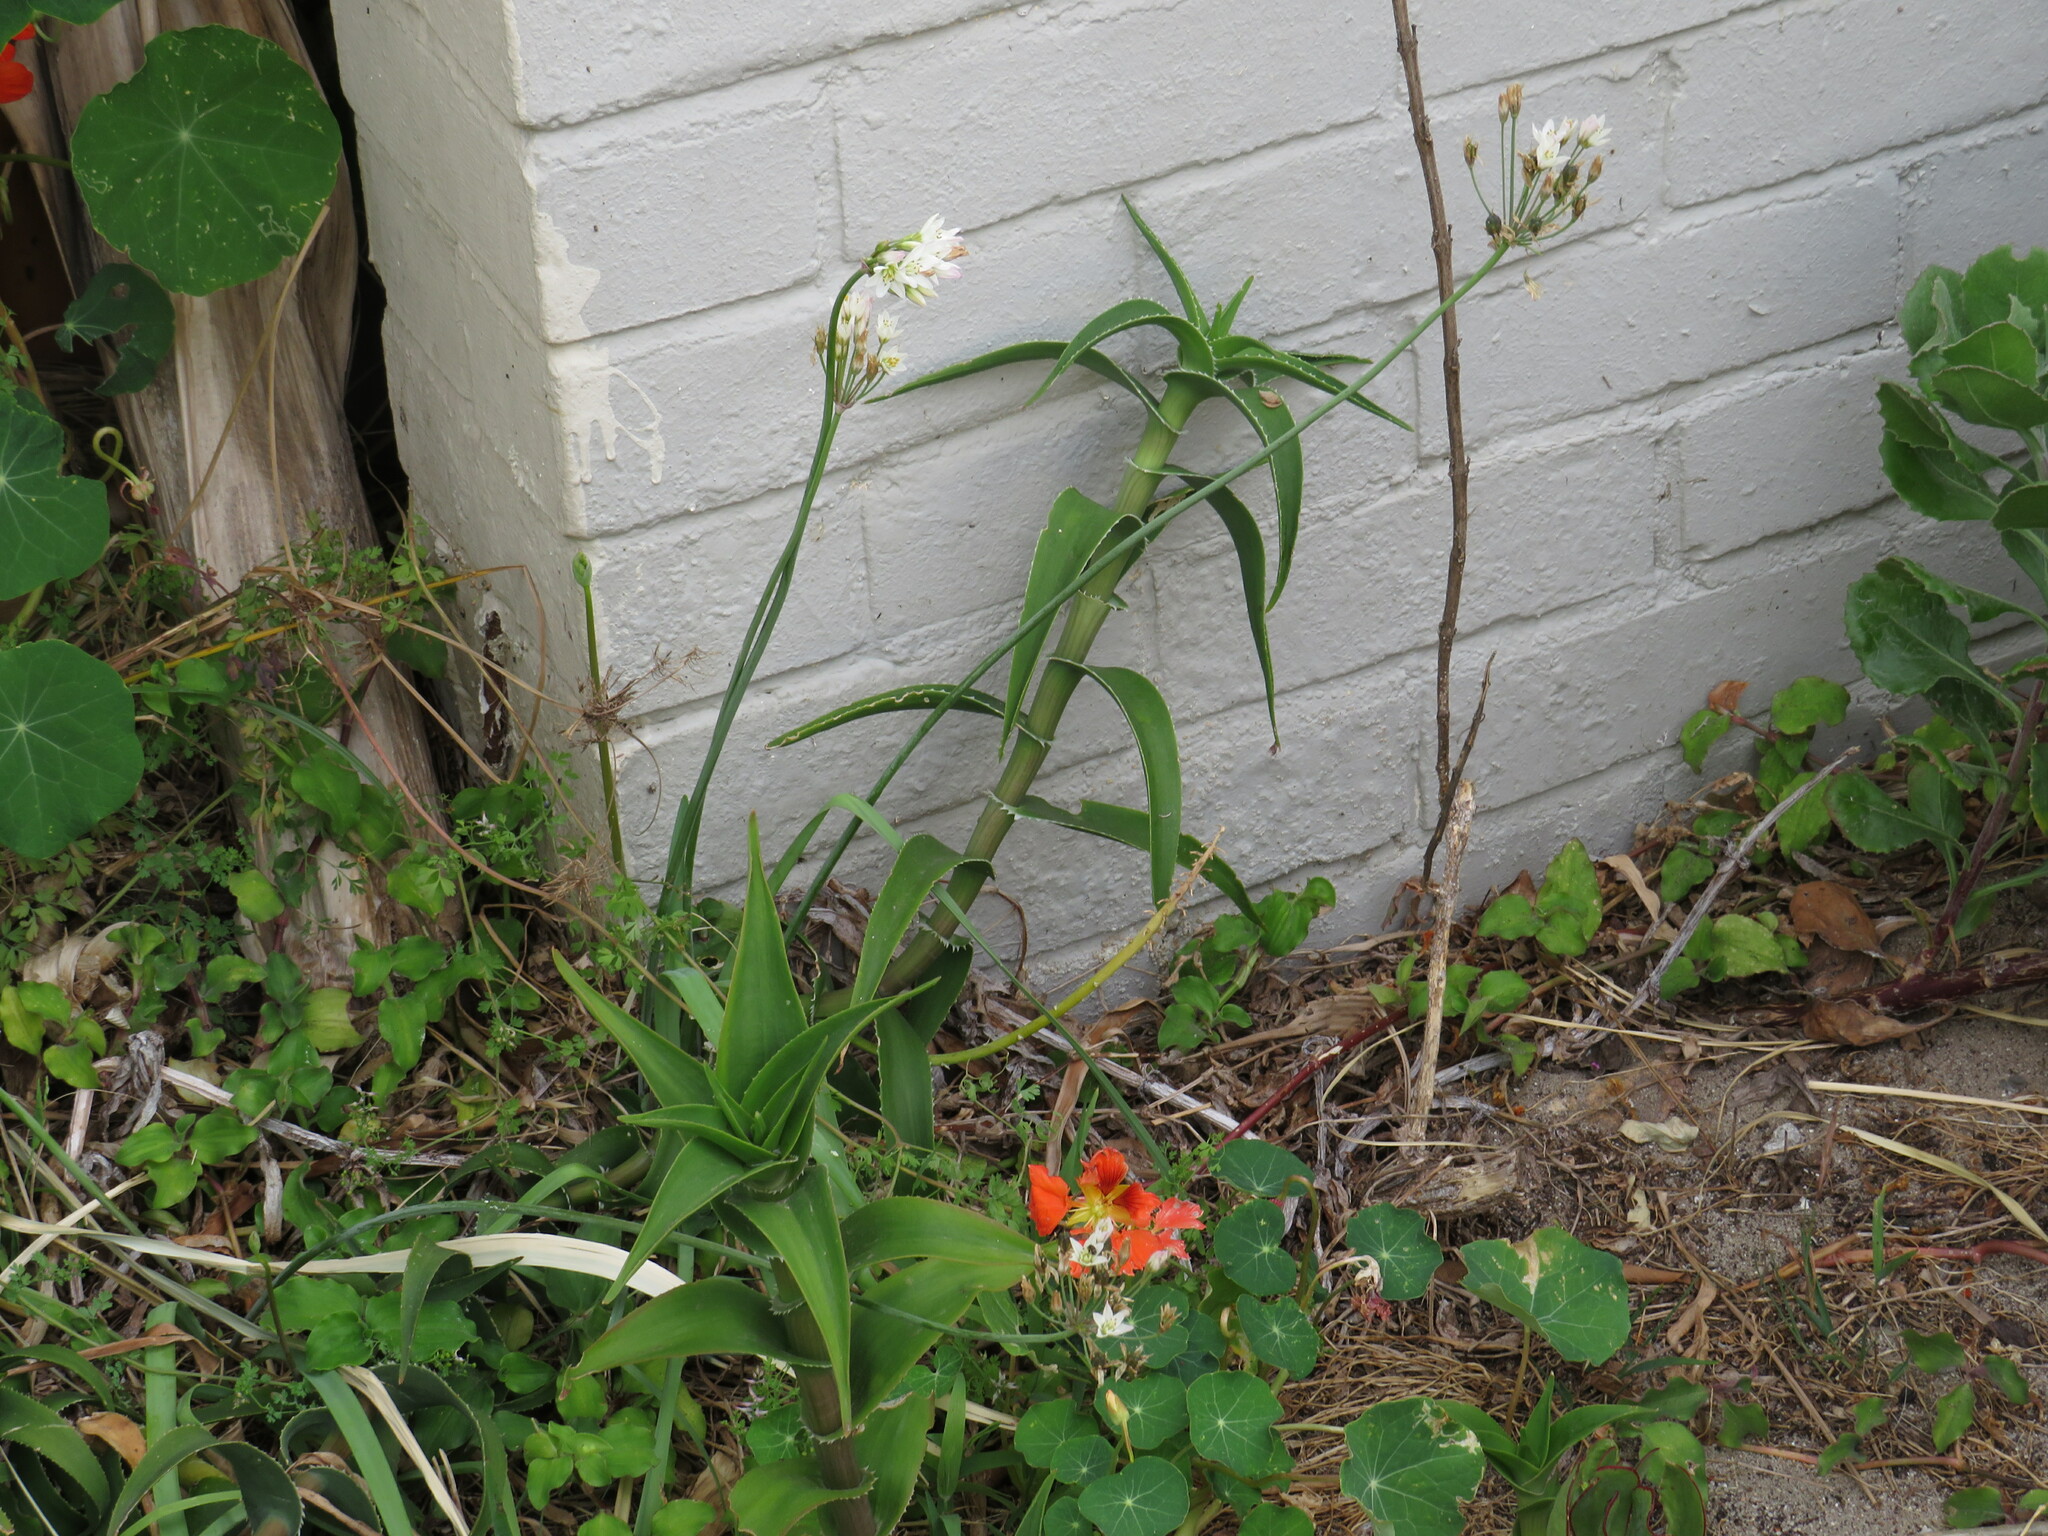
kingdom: Plantae
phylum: Tracheophyta
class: Liliopsida
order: Asparagales
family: Amaryllidaceae
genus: Nothoscordum
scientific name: Nothoscordum gracile
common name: Slender false garlic
